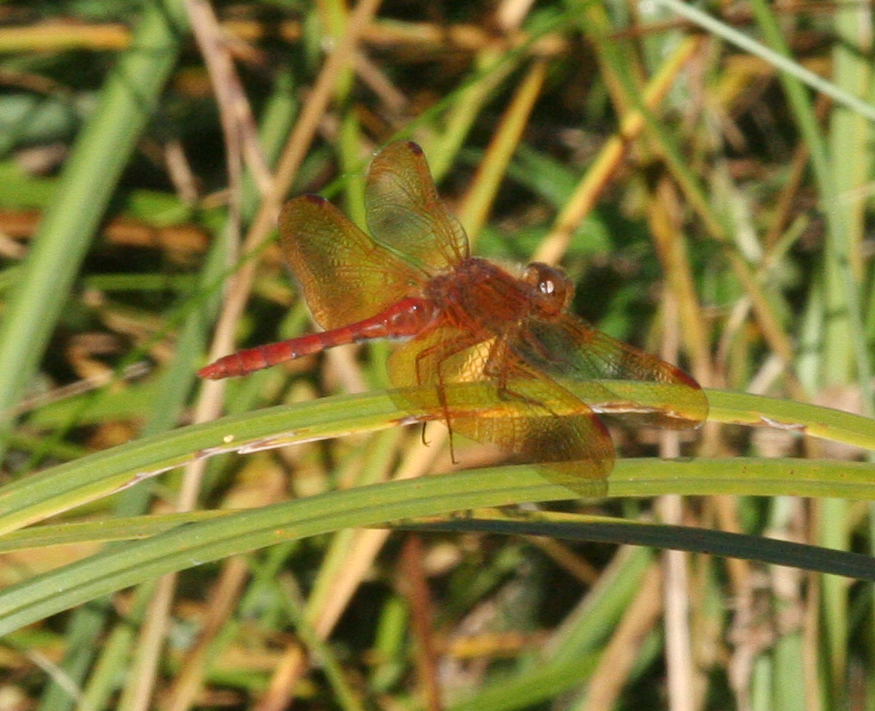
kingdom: Animalia
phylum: Arthropoda
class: Insecta
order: Odonata
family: Libellulidae
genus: Sympetrum
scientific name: Sympetrum croceolum
